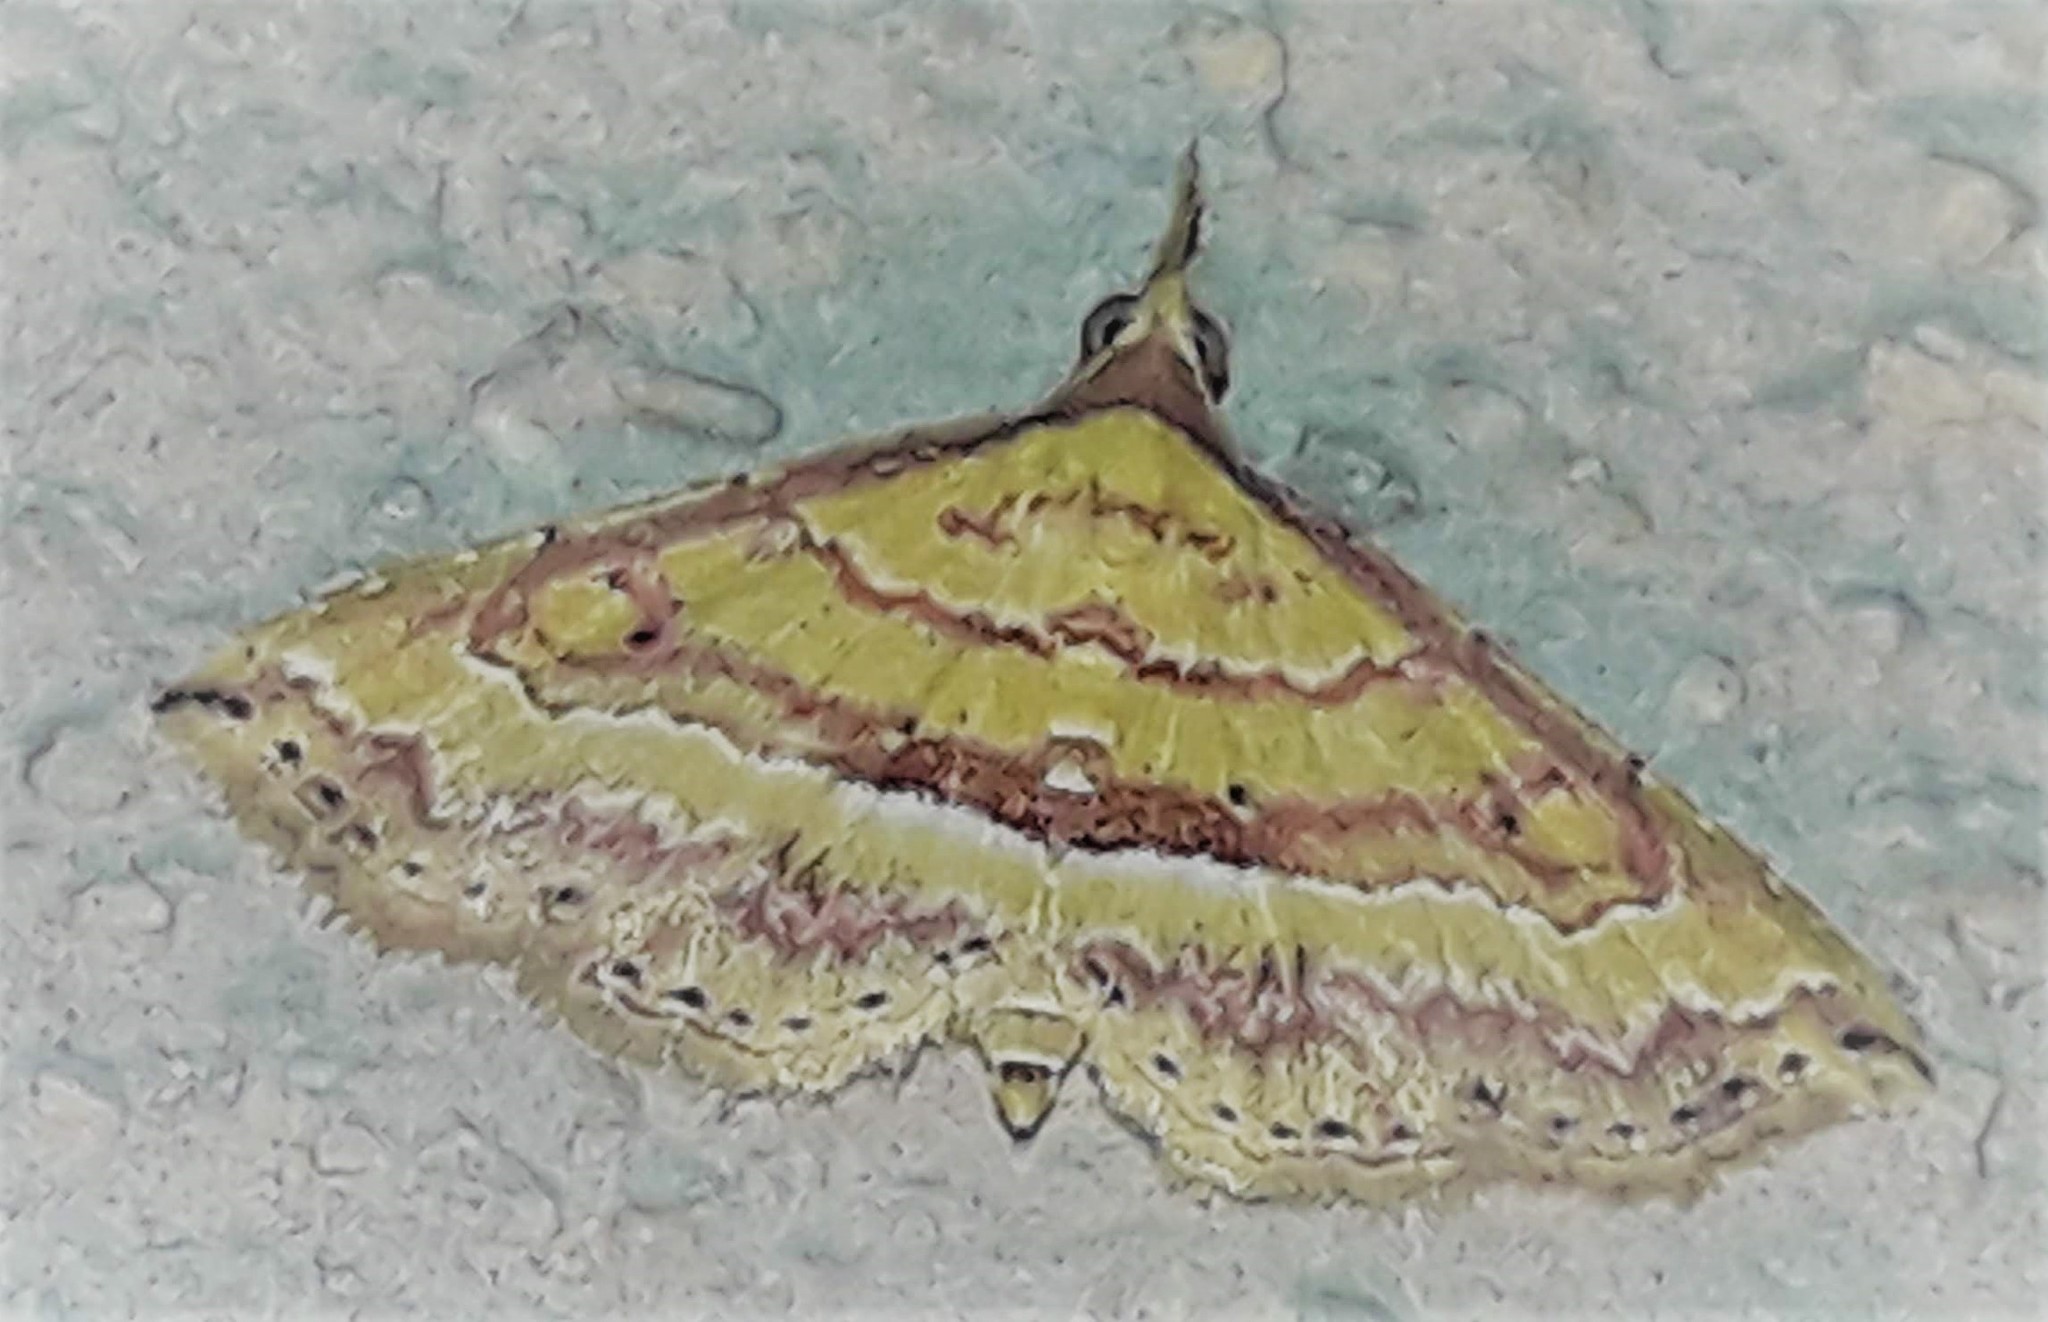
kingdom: Animalia
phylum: Arthropoda
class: Insecta
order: Lepidoptera
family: Erebidae
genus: Mursa
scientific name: Mursa phtisialis
